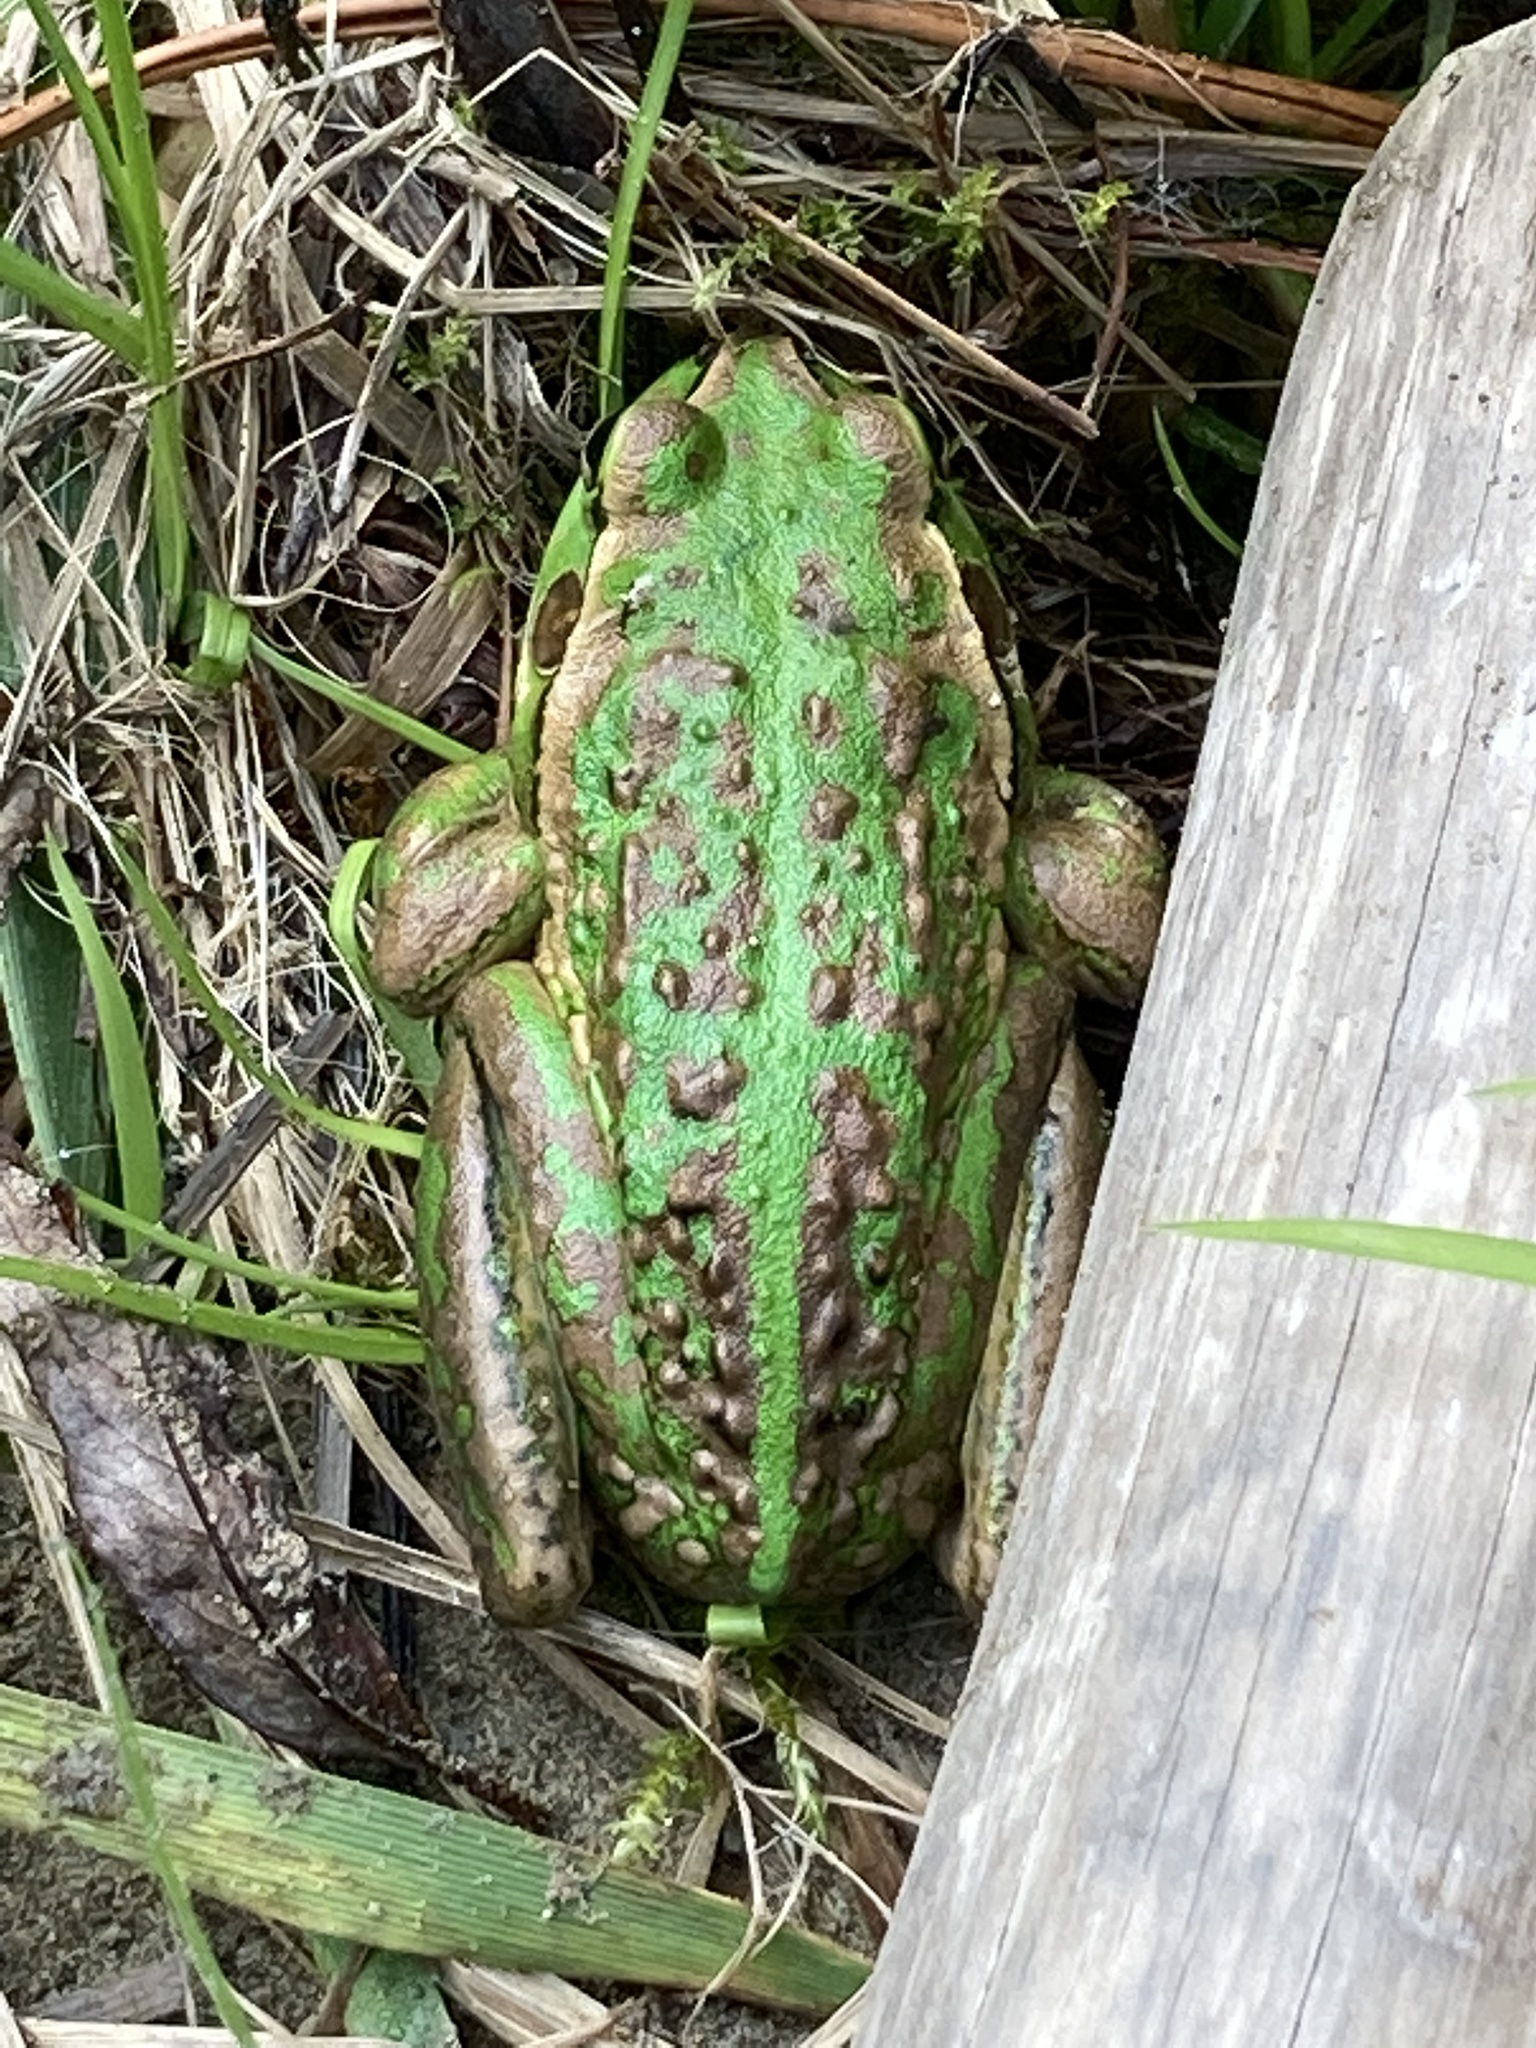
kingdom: Animalia
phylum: Chordata
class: Amphibia
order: Anura
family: Pelodryadidae
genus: Ranoidea
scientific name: Ranoidea raniformis
